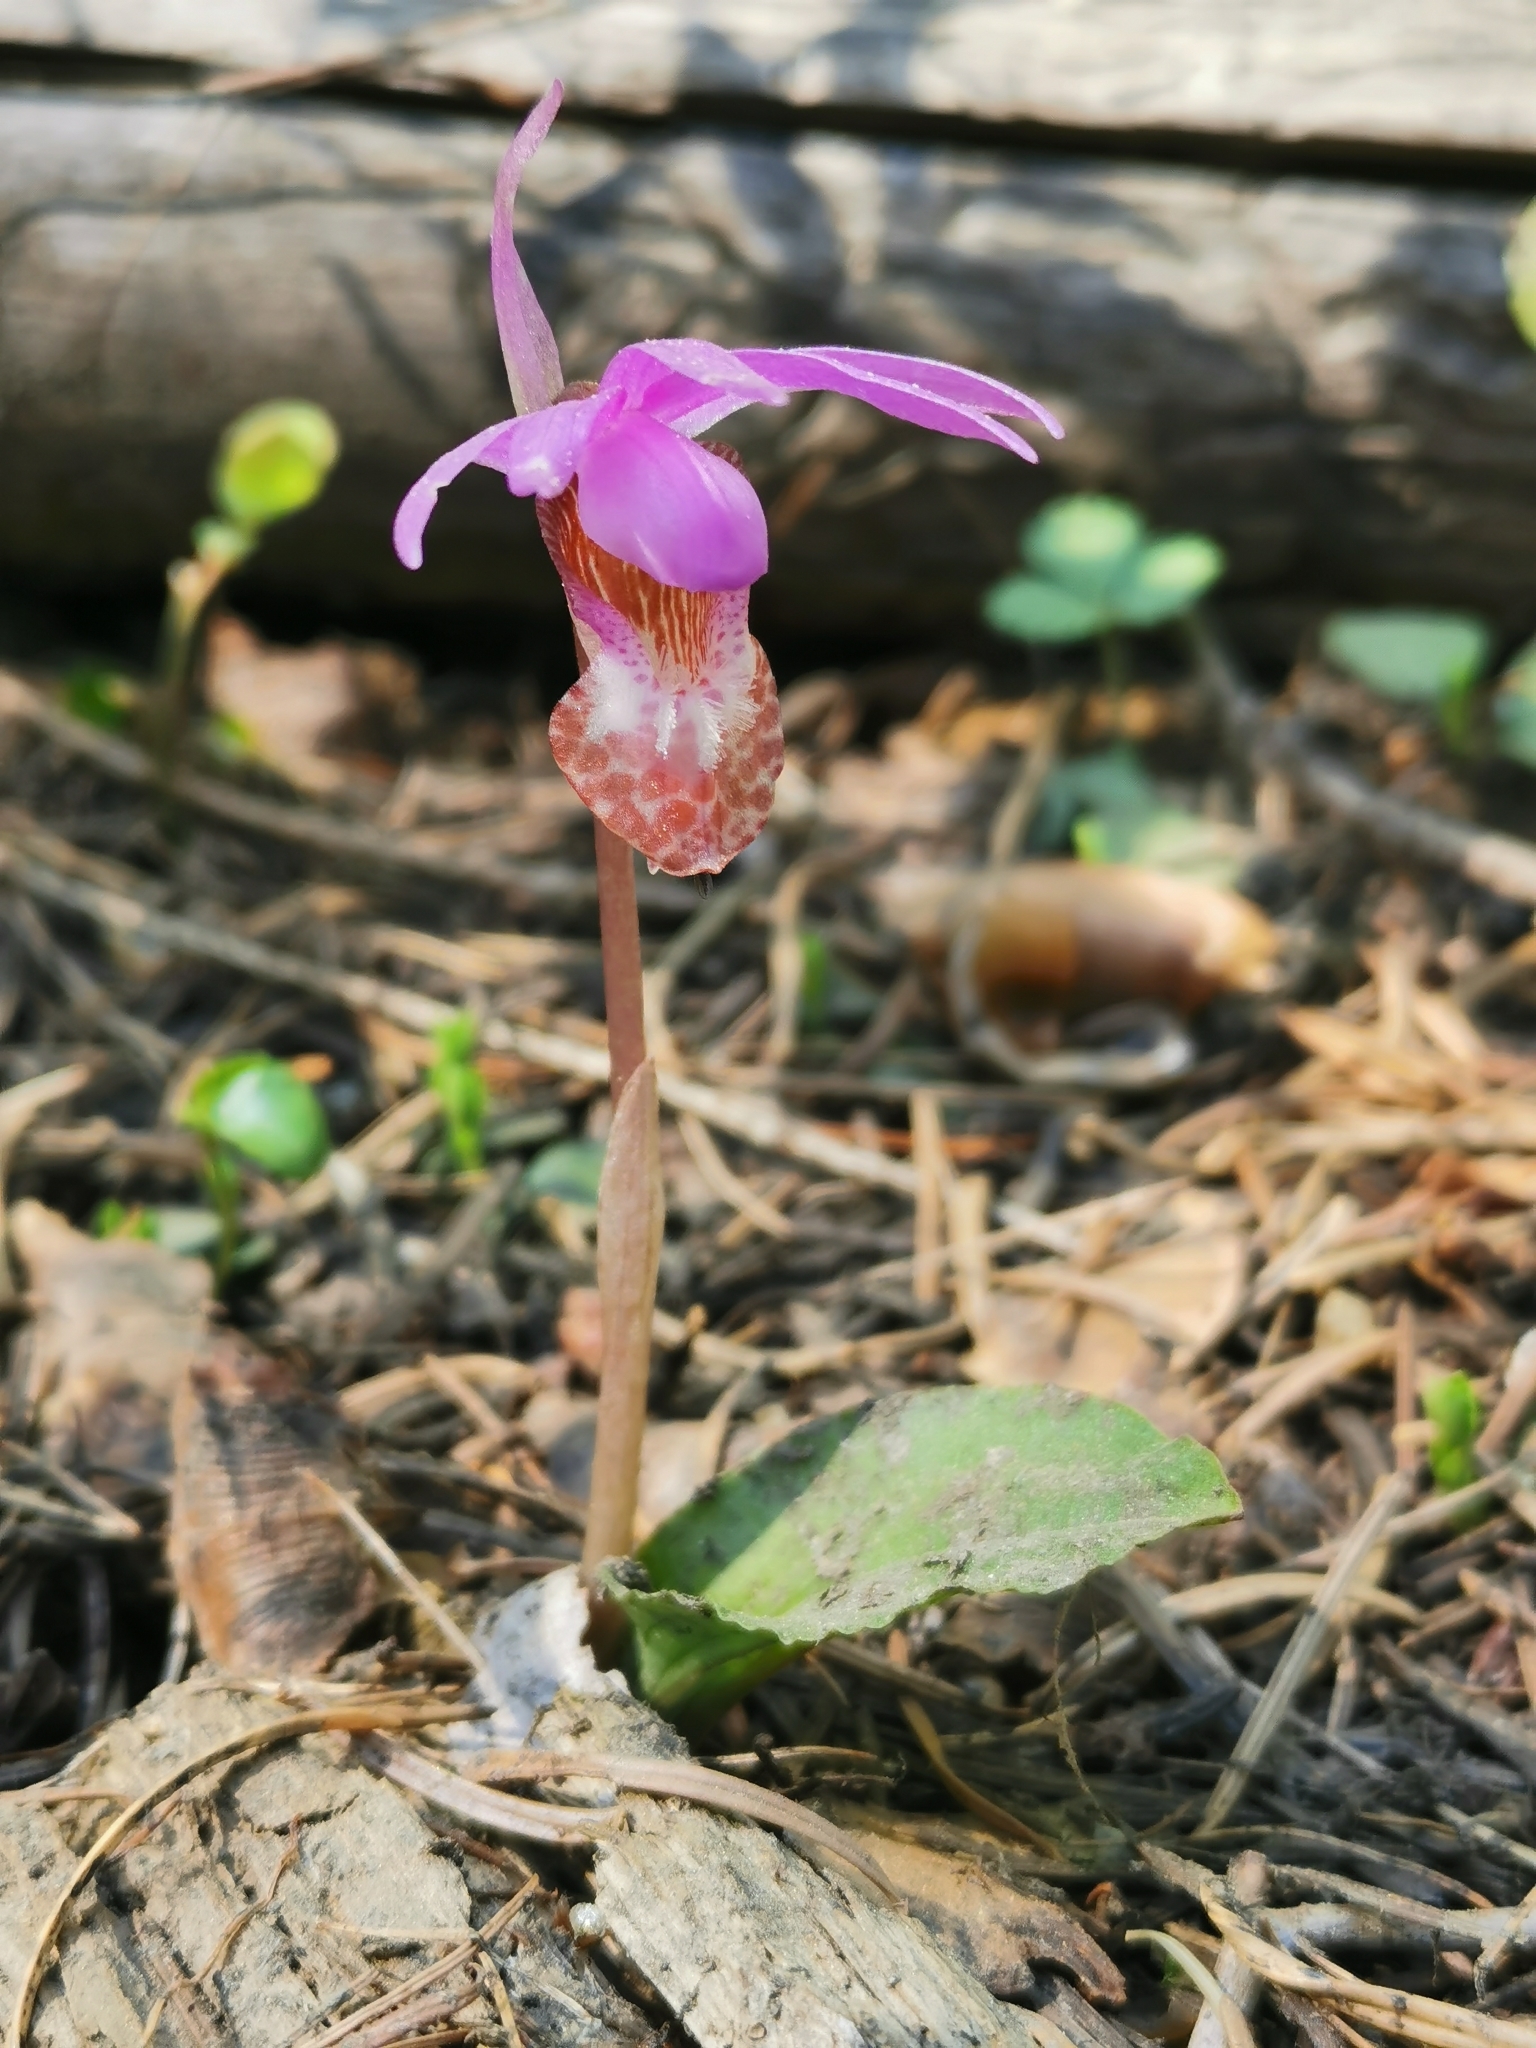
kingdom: Plantae
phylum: Tracheophyta
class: Liliopsida
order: Asparagales
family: Orchidaceae
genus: Calypso
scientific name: Calypso bulbosa
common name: Calypso
